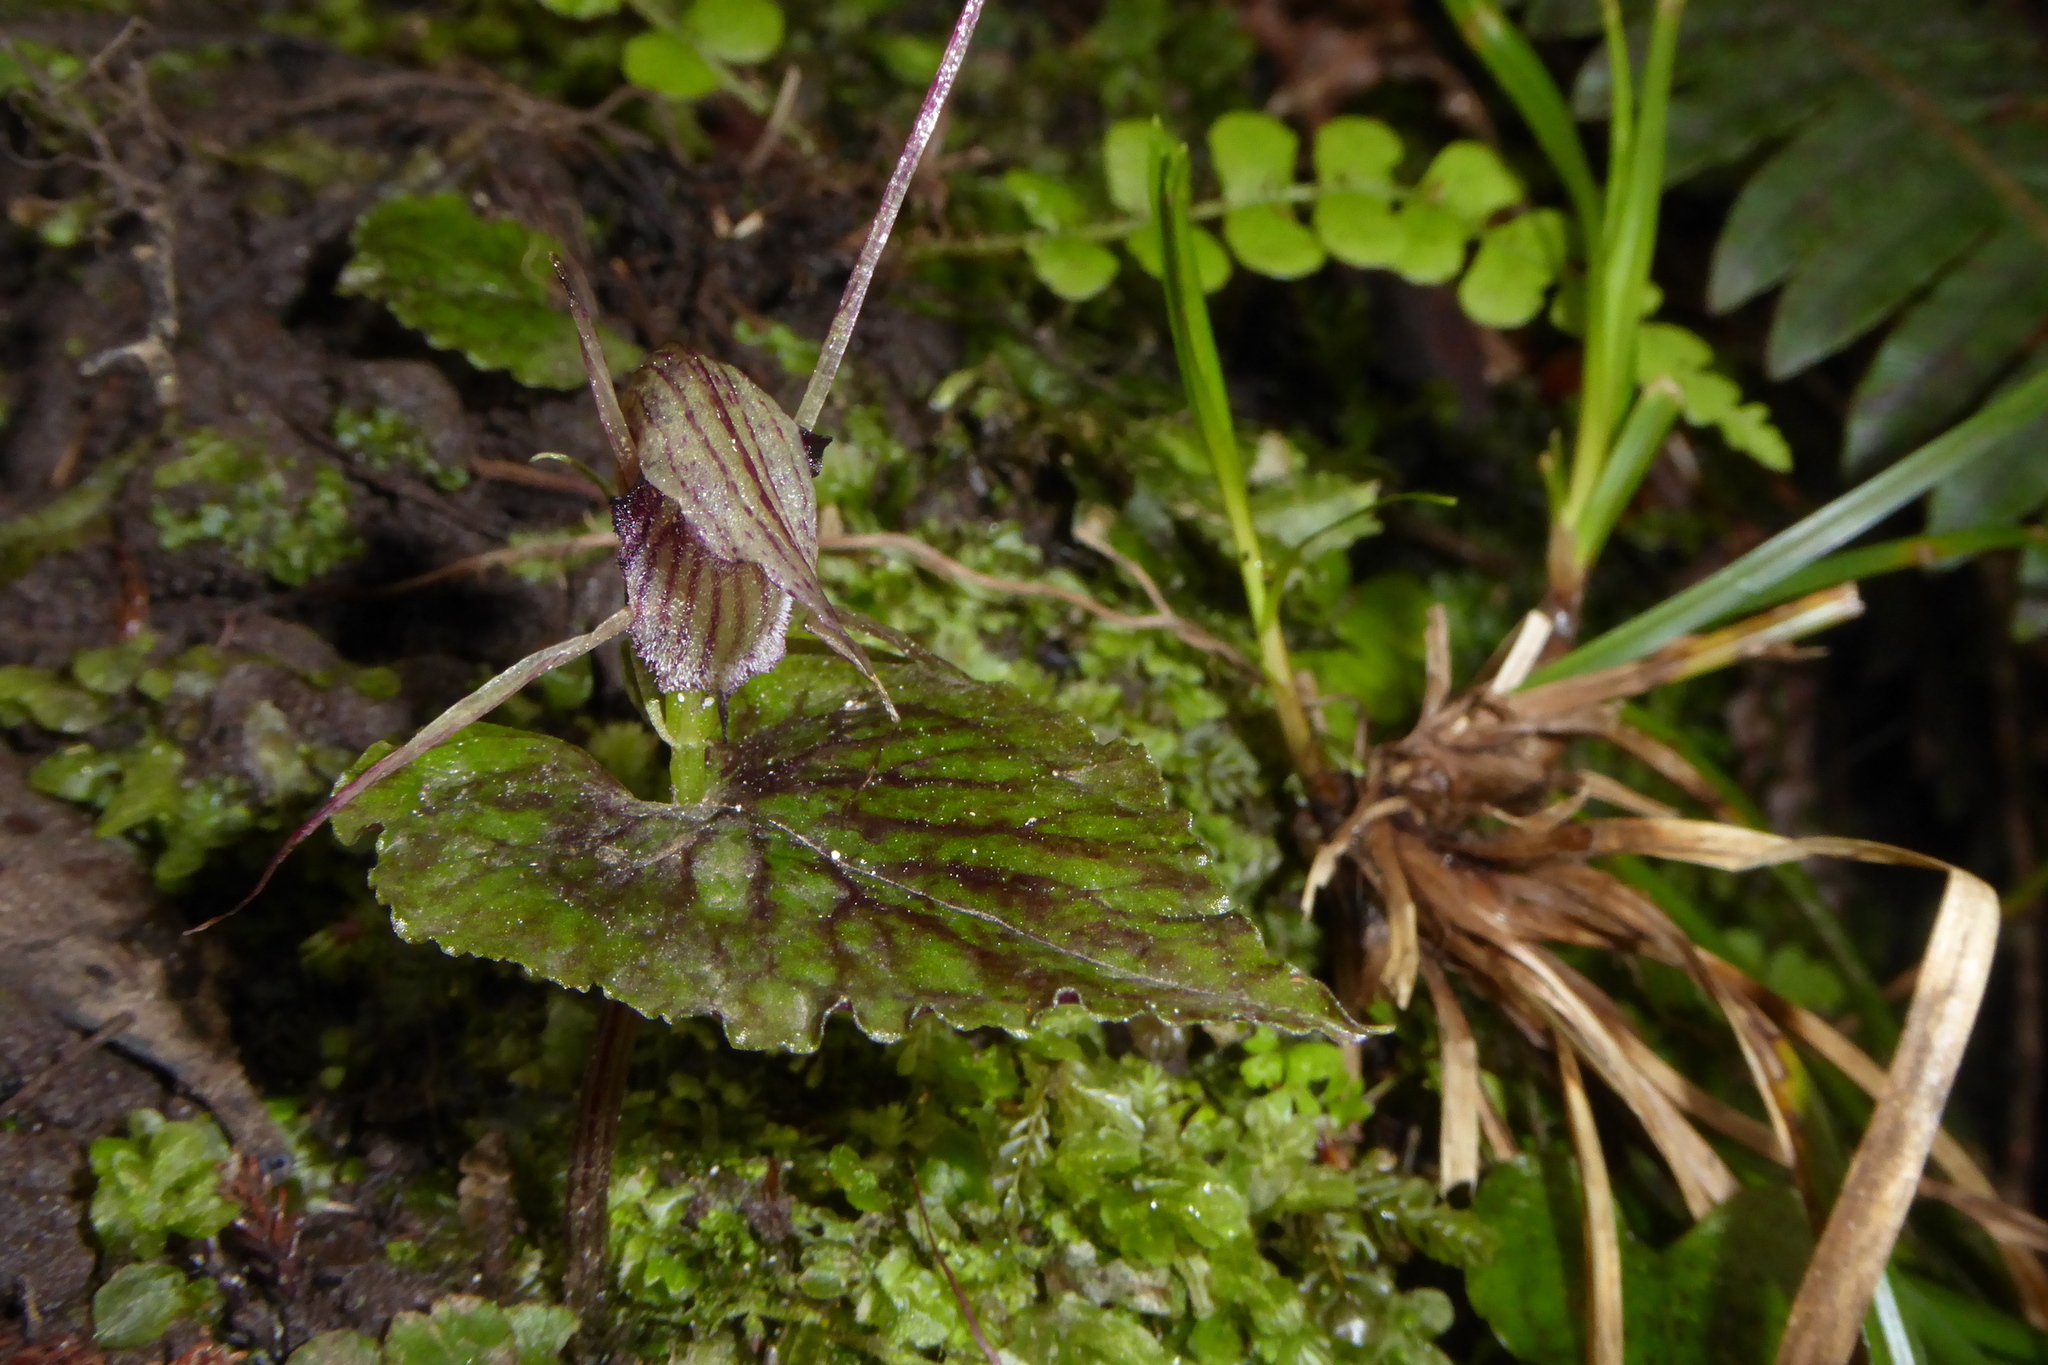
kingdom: Plantae
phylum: Tracheophyta
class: Liliopsida
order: Asparagales
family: Orchidaceae
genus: Corybas
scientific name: Corybas acuminatus
